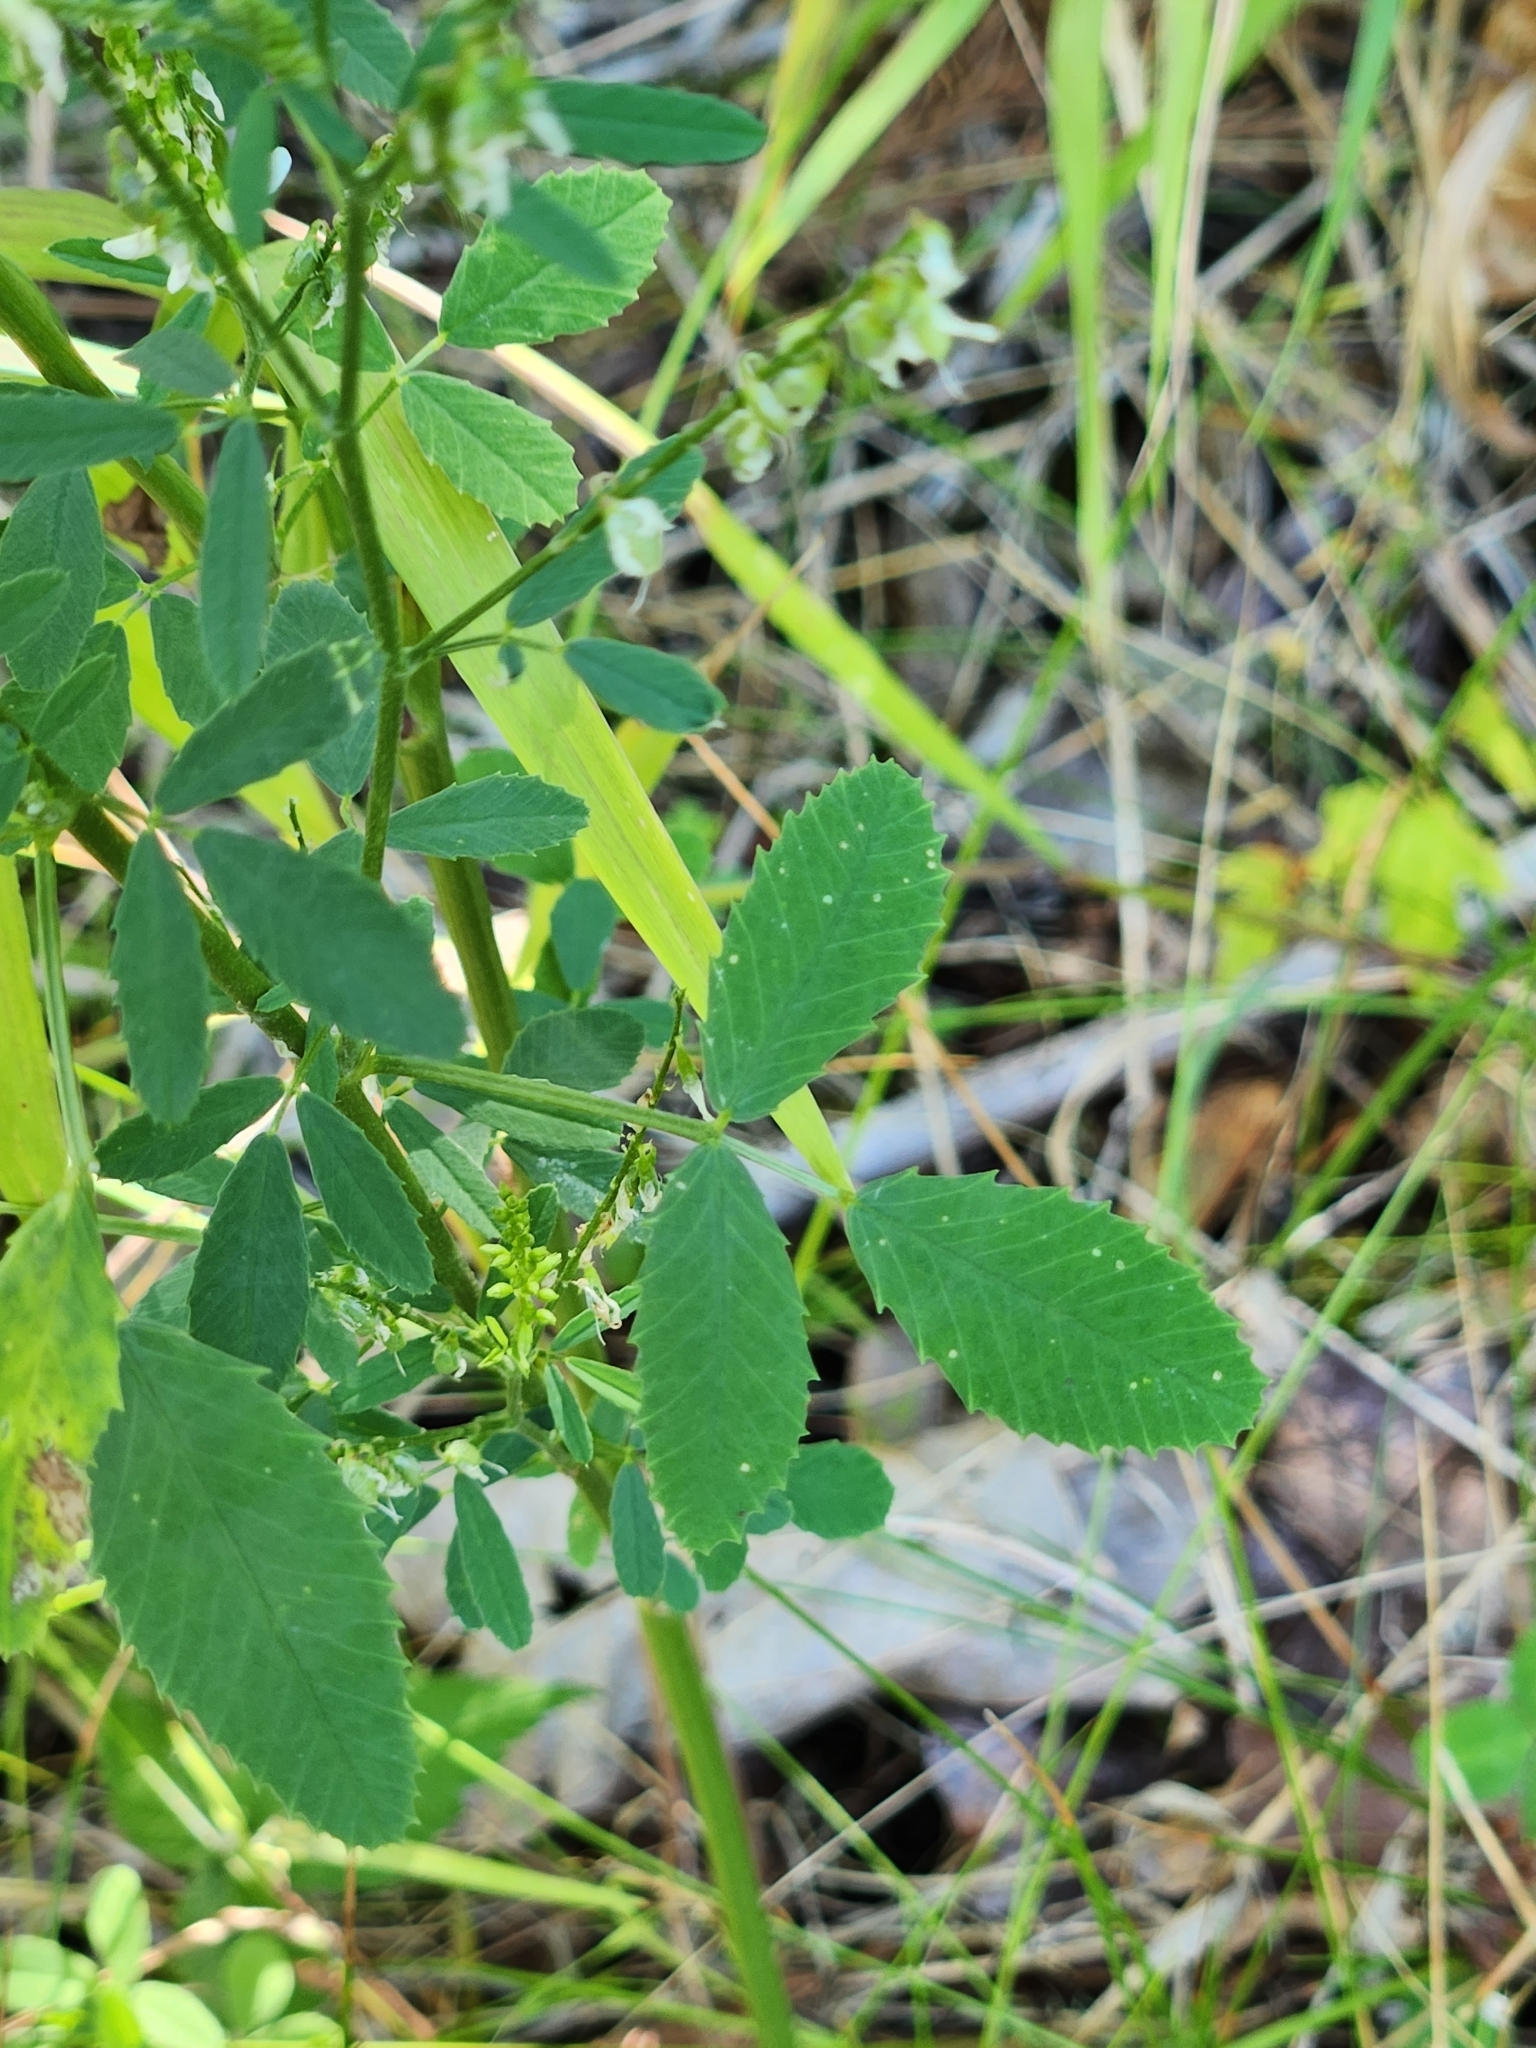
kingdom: Plantae
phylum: Tracheophyta
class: Magnoliopsida
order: Fabales
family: Fabaceae
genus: Melilotus
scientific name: Melilotus albus
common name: White melilot
